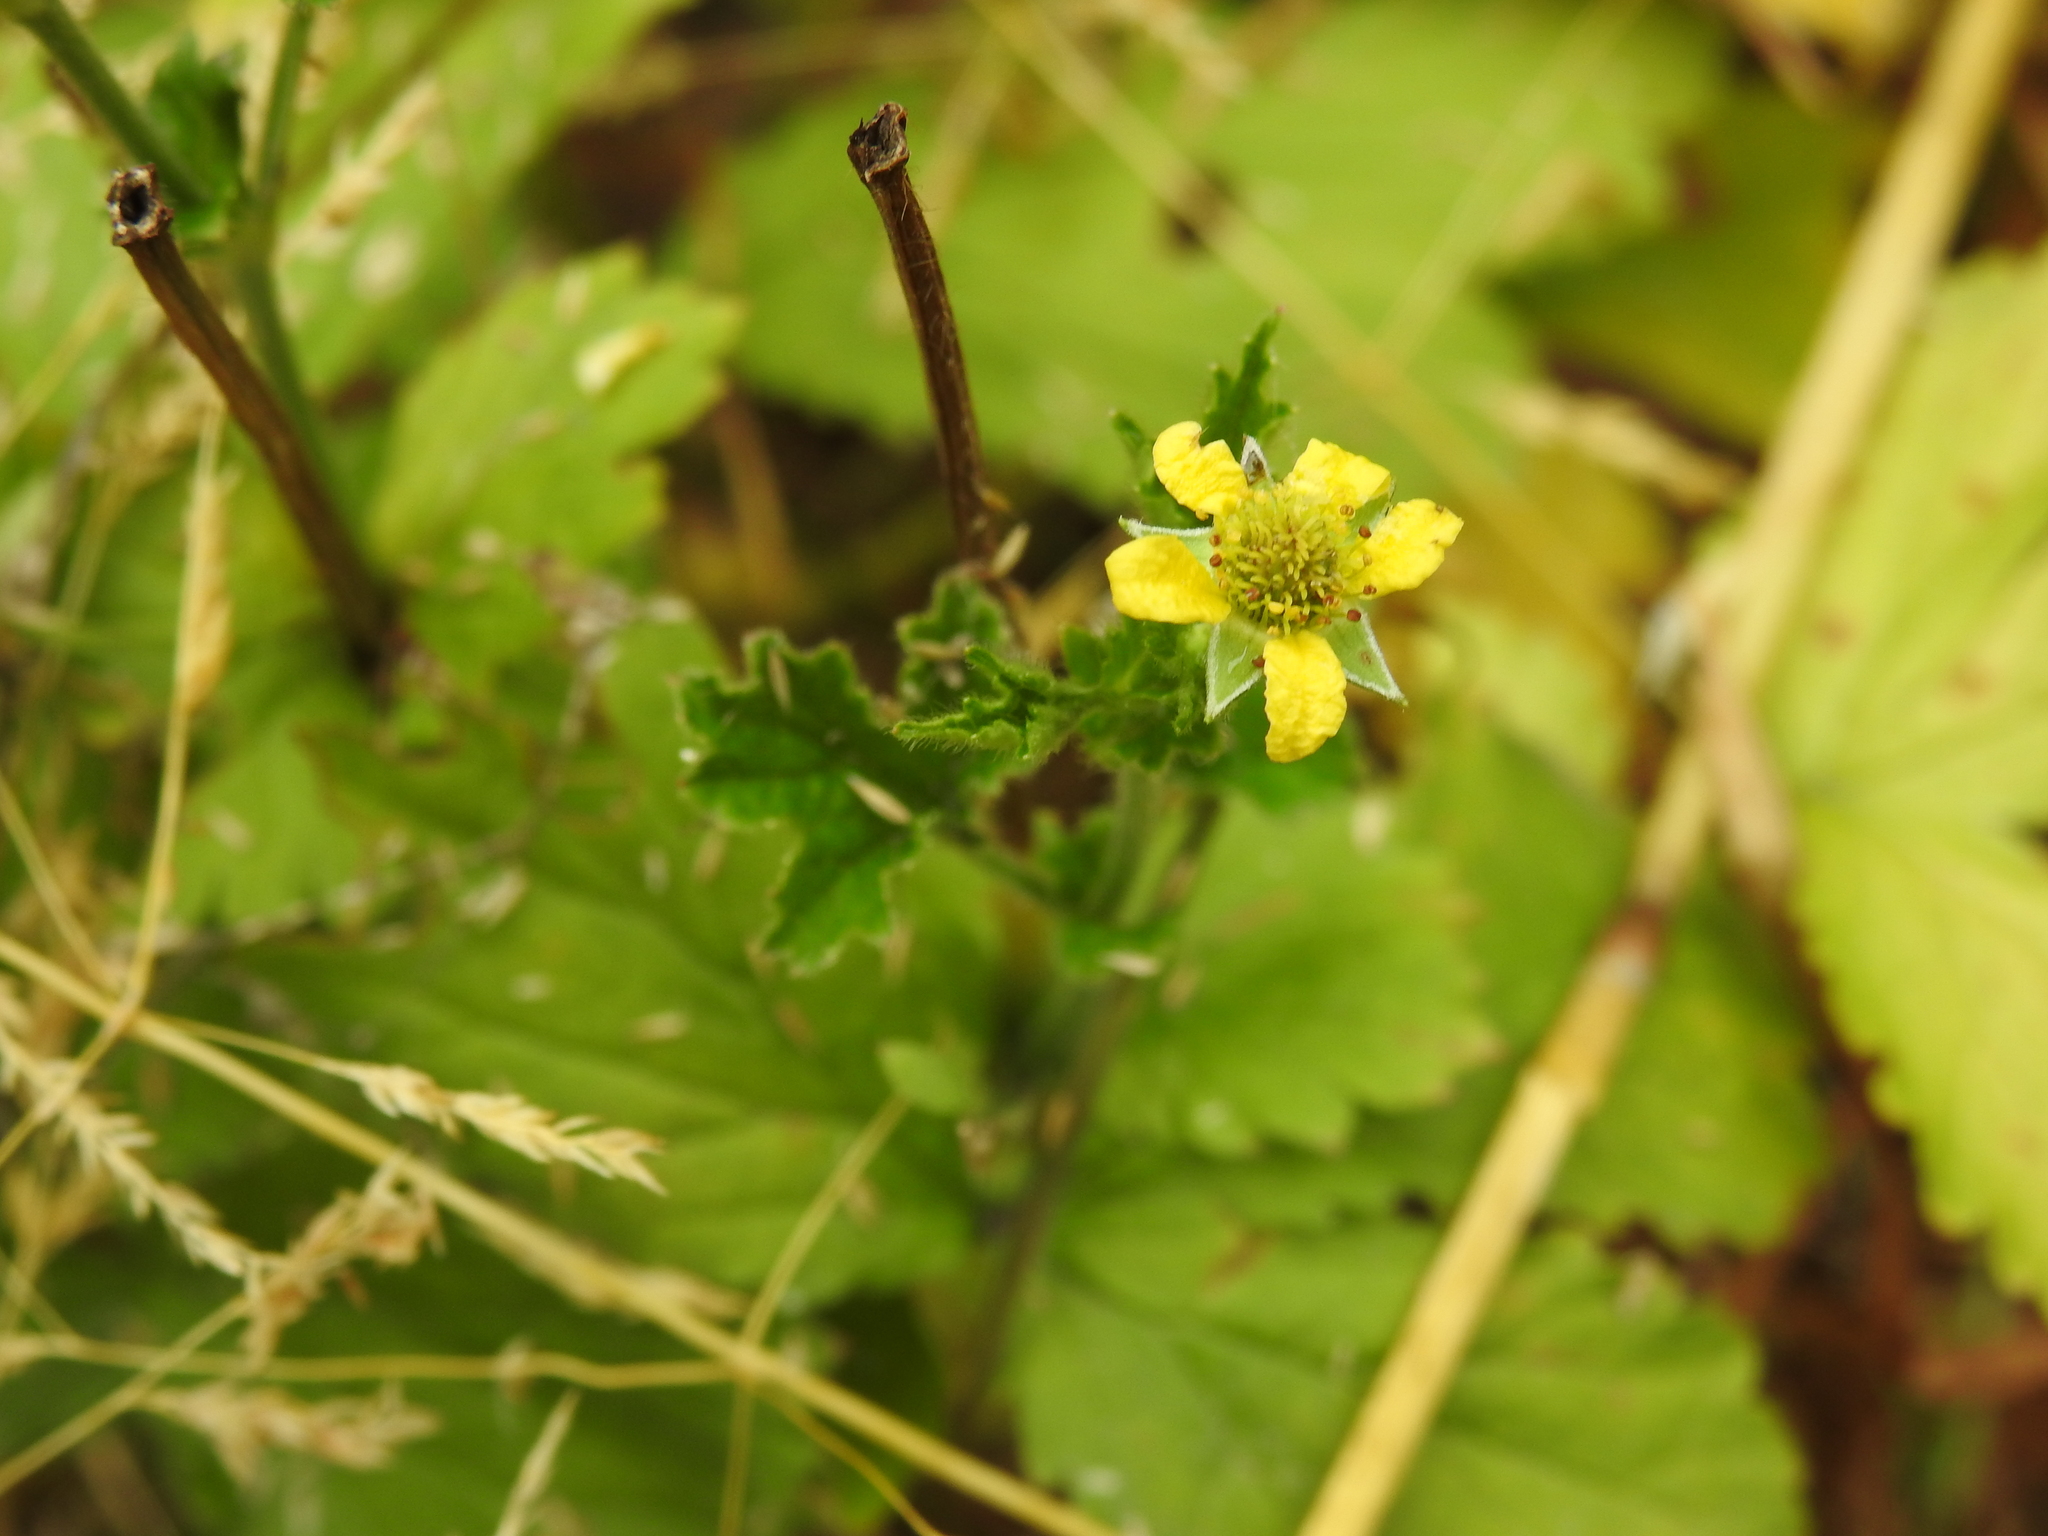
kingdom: Plantae
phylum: Tracheophyta
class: Magnoliopsida
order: Rosales
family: Rosaceae
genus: Geum
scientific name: Geum urbanum
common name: Wood avens
